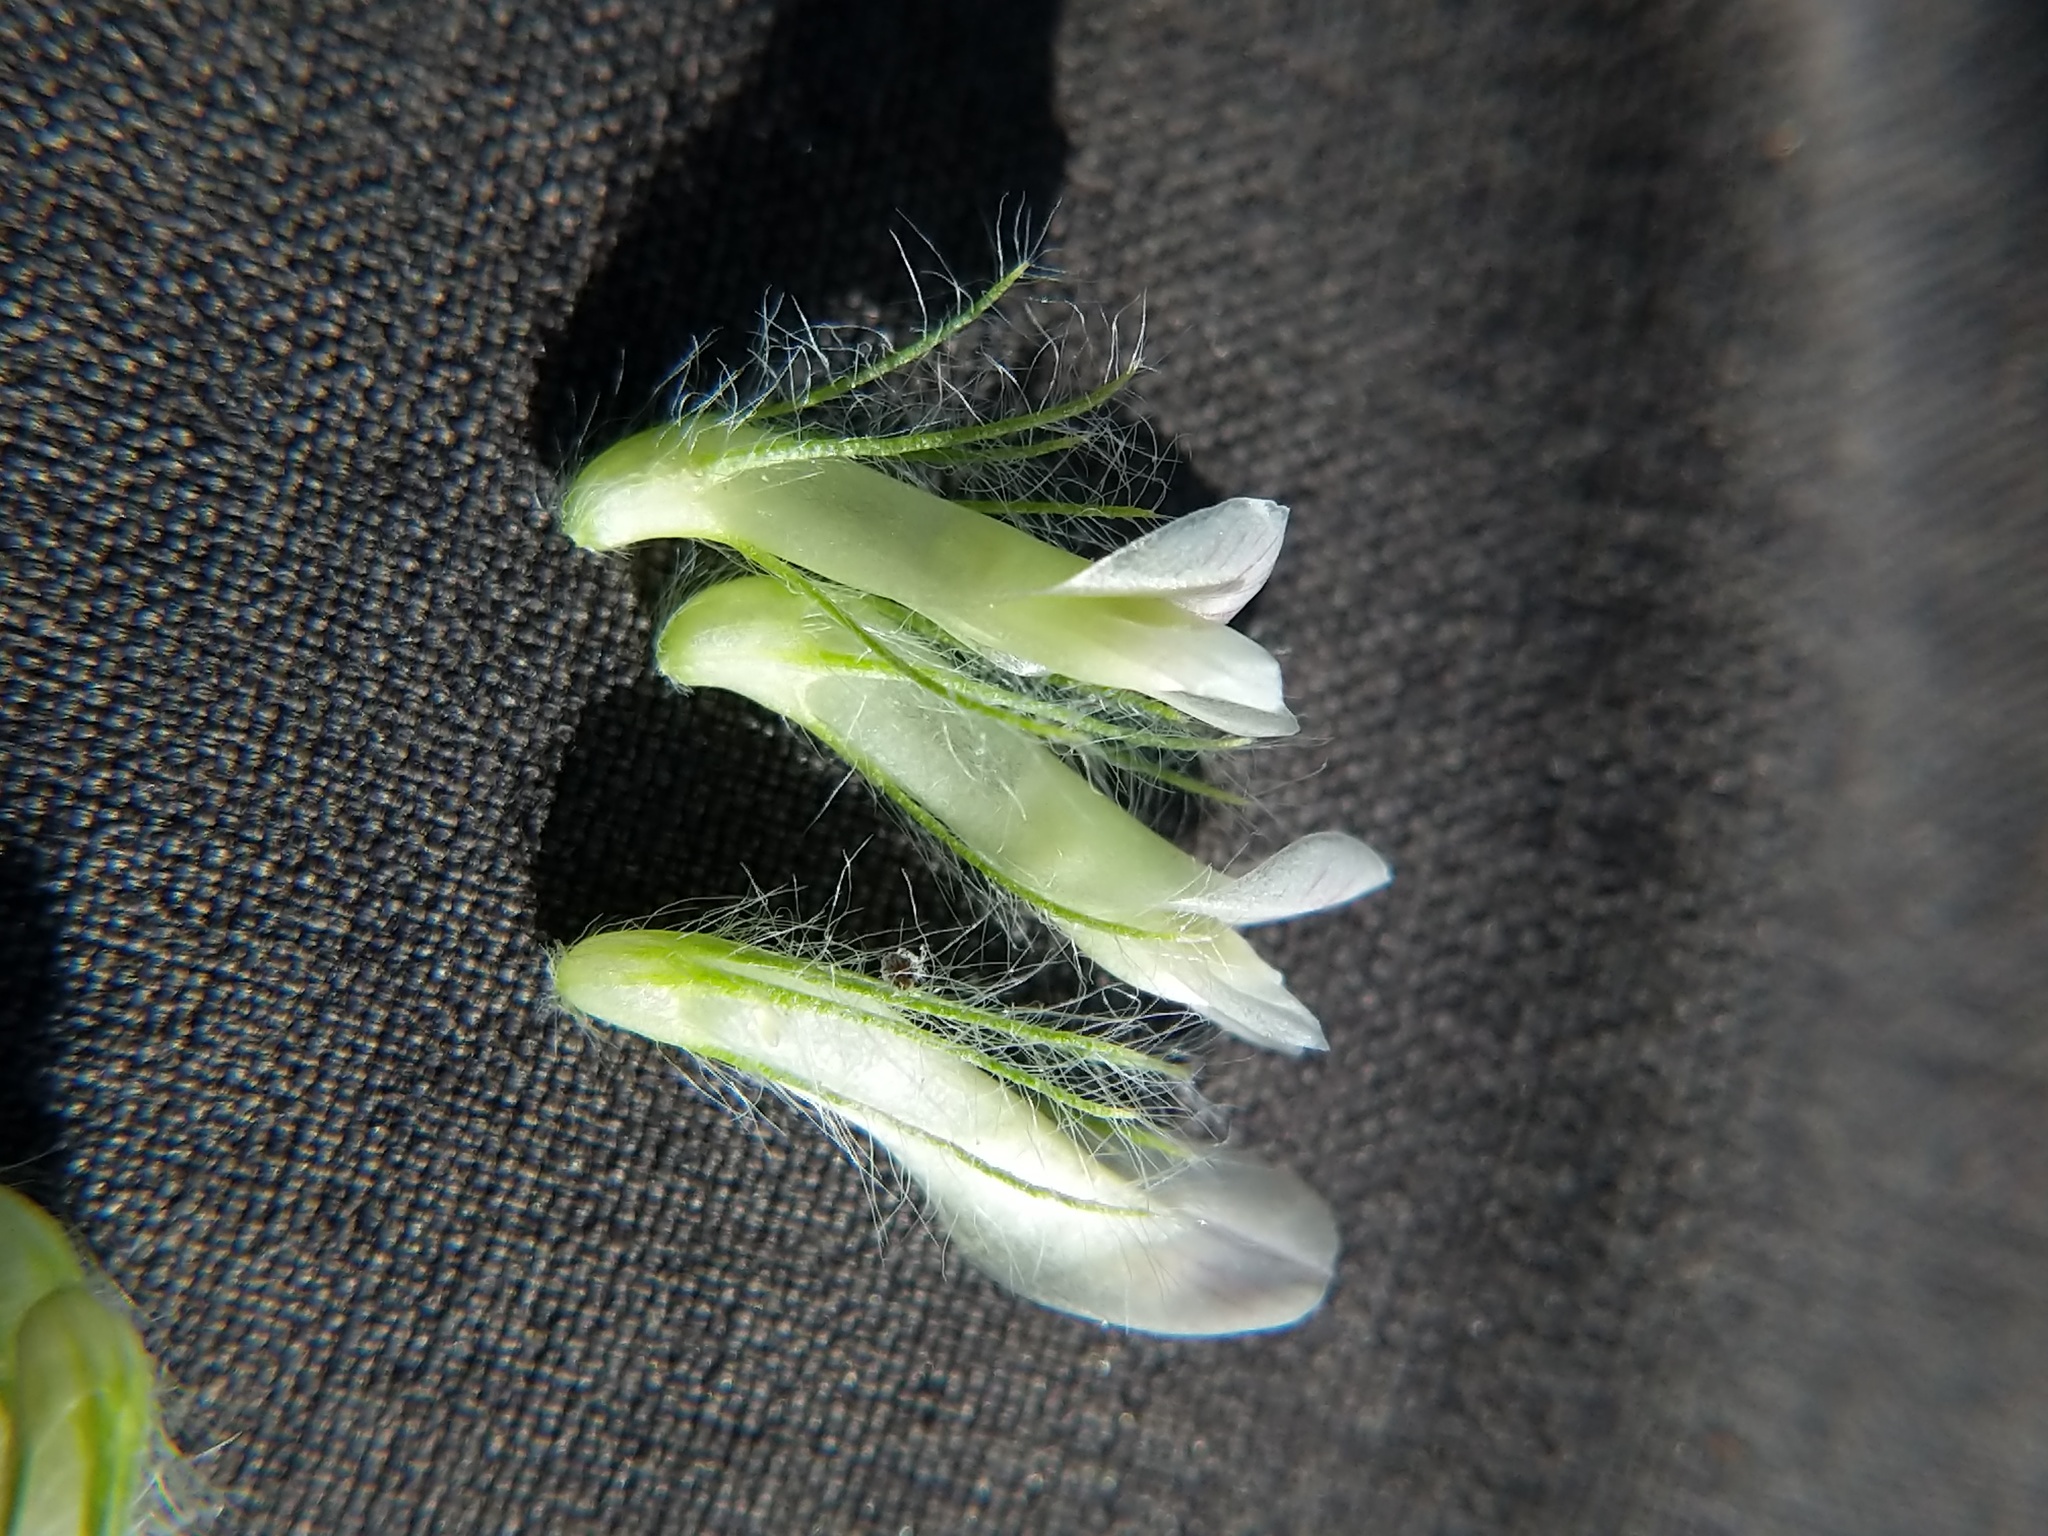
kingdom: Plantae
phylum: Tracheophyta
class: Magnoliopsida
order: Fabales
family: Fabaceae
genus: Trifolium
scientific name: Trifolium eriocephalum
